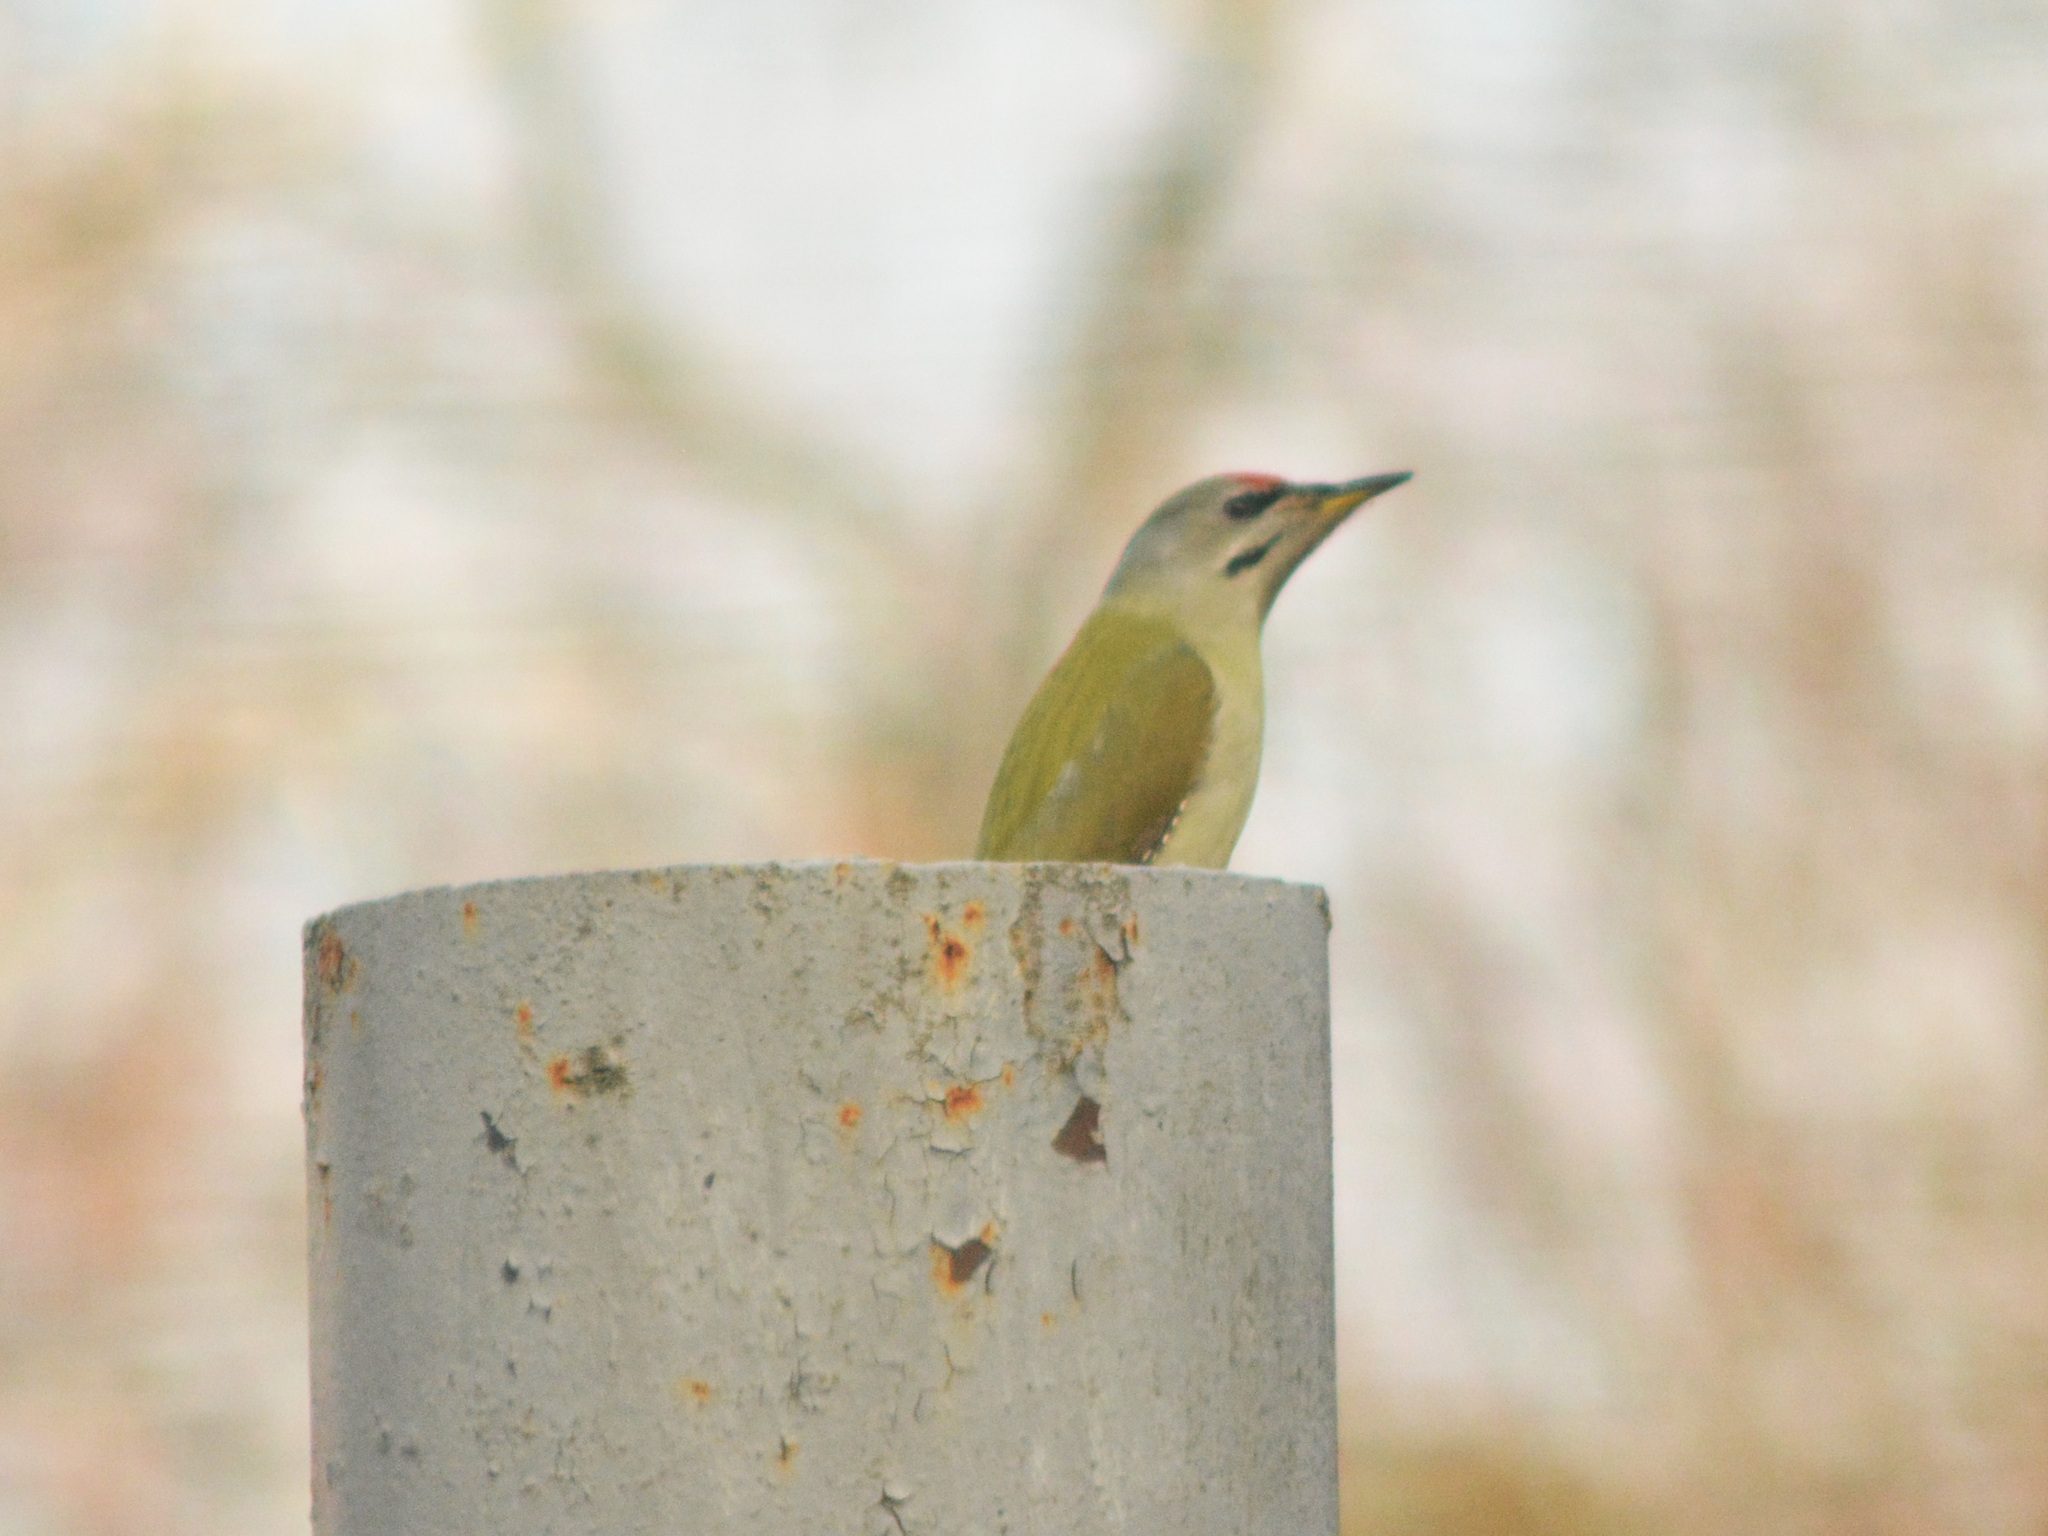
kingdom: Animalia
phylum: Chordata
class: Aves
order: Piciformes
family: Picidae
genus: Picus
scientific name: Picus canus
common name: Grey-headed woodpecker
